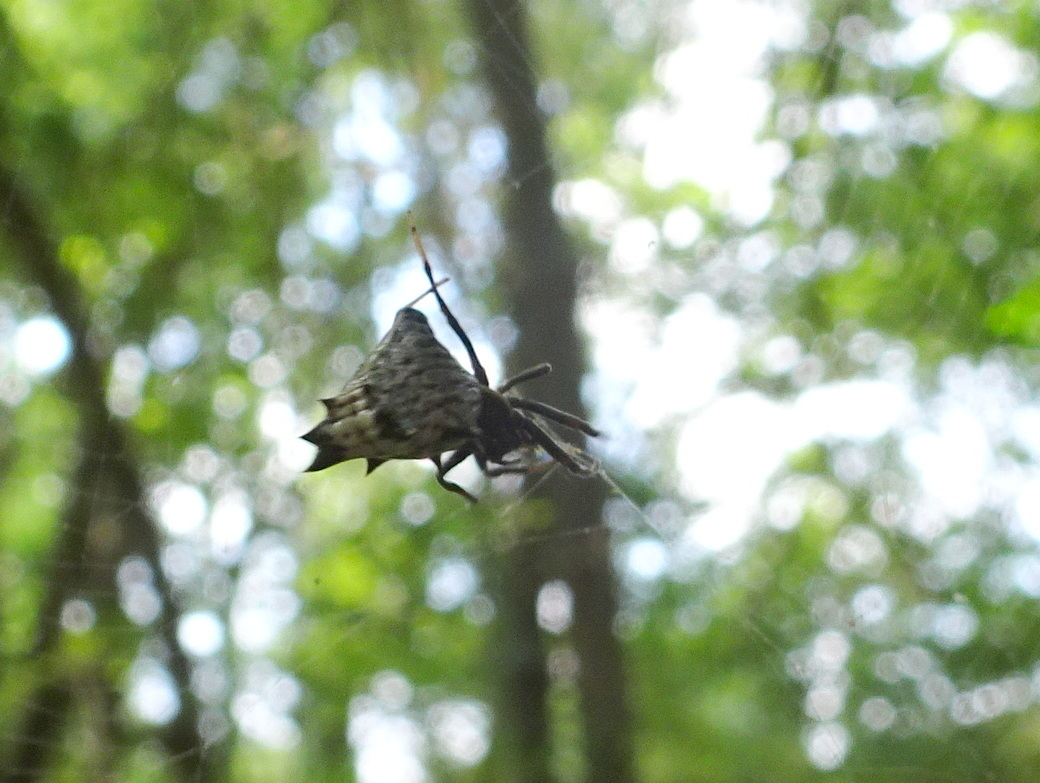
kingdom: Animalia
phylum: Arthropoda
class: Arachnida
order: Araneae
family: Araneidae
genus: Micrathena
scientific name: Micrathena gracilis
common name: Orb weavers
